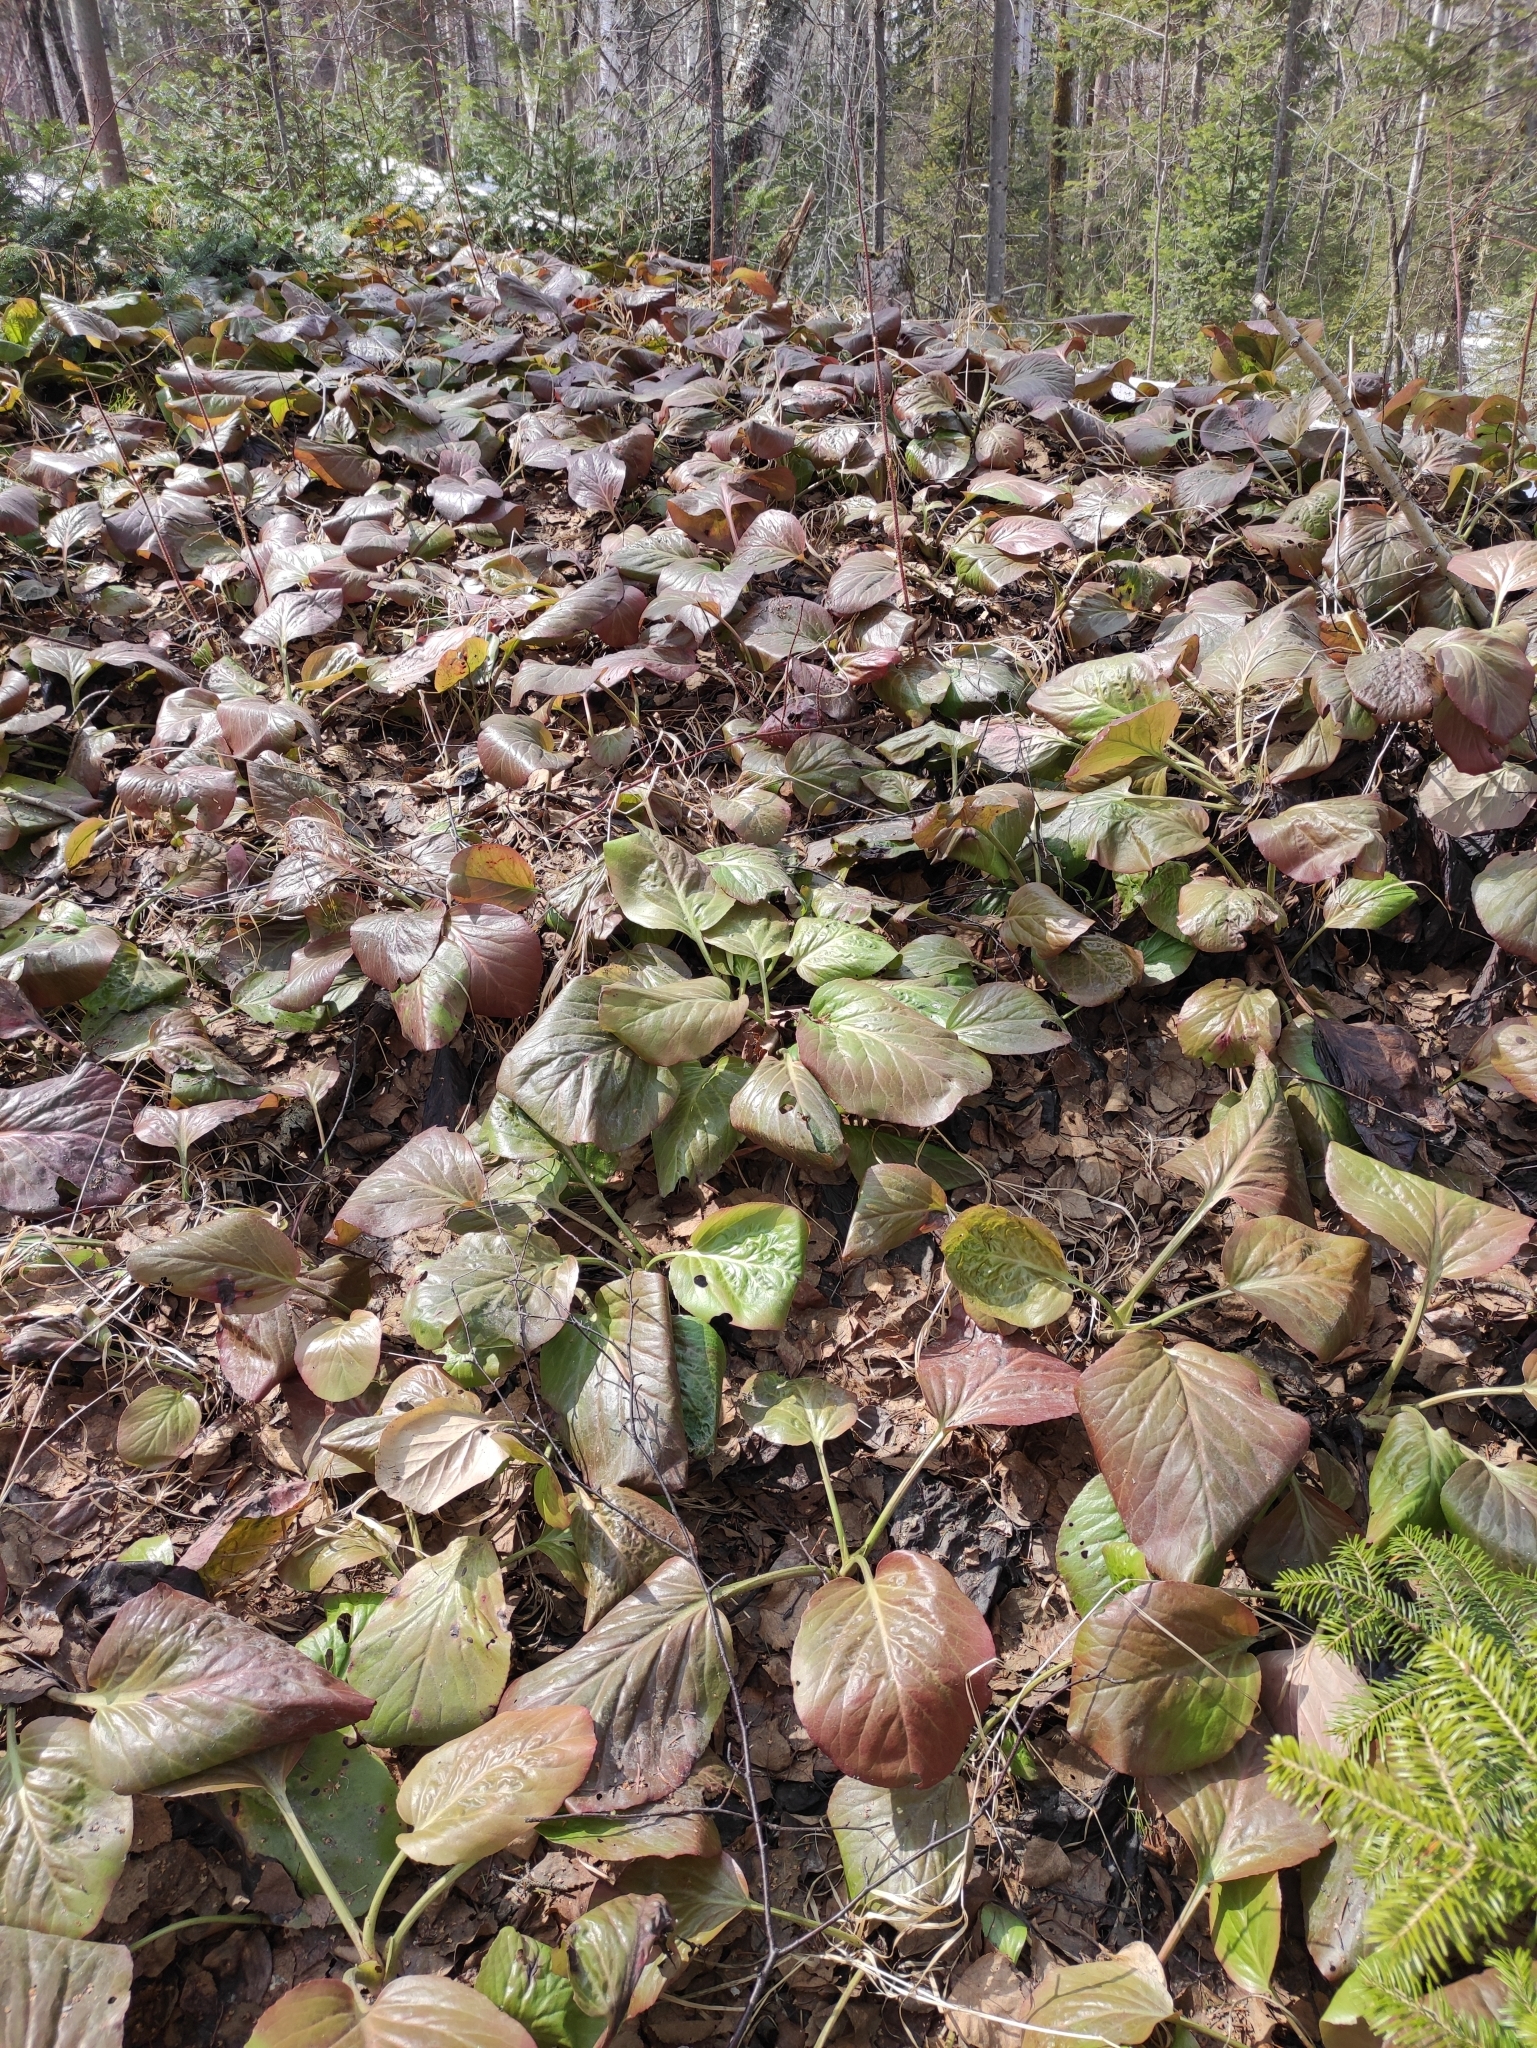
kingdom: Plantae
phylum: Tracheophyta
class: Magnoliopsida
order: Saxifragales
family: Saxifragaceae
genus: Bergenia
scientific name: Bergenia crassifolia
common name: Elephant-ears
